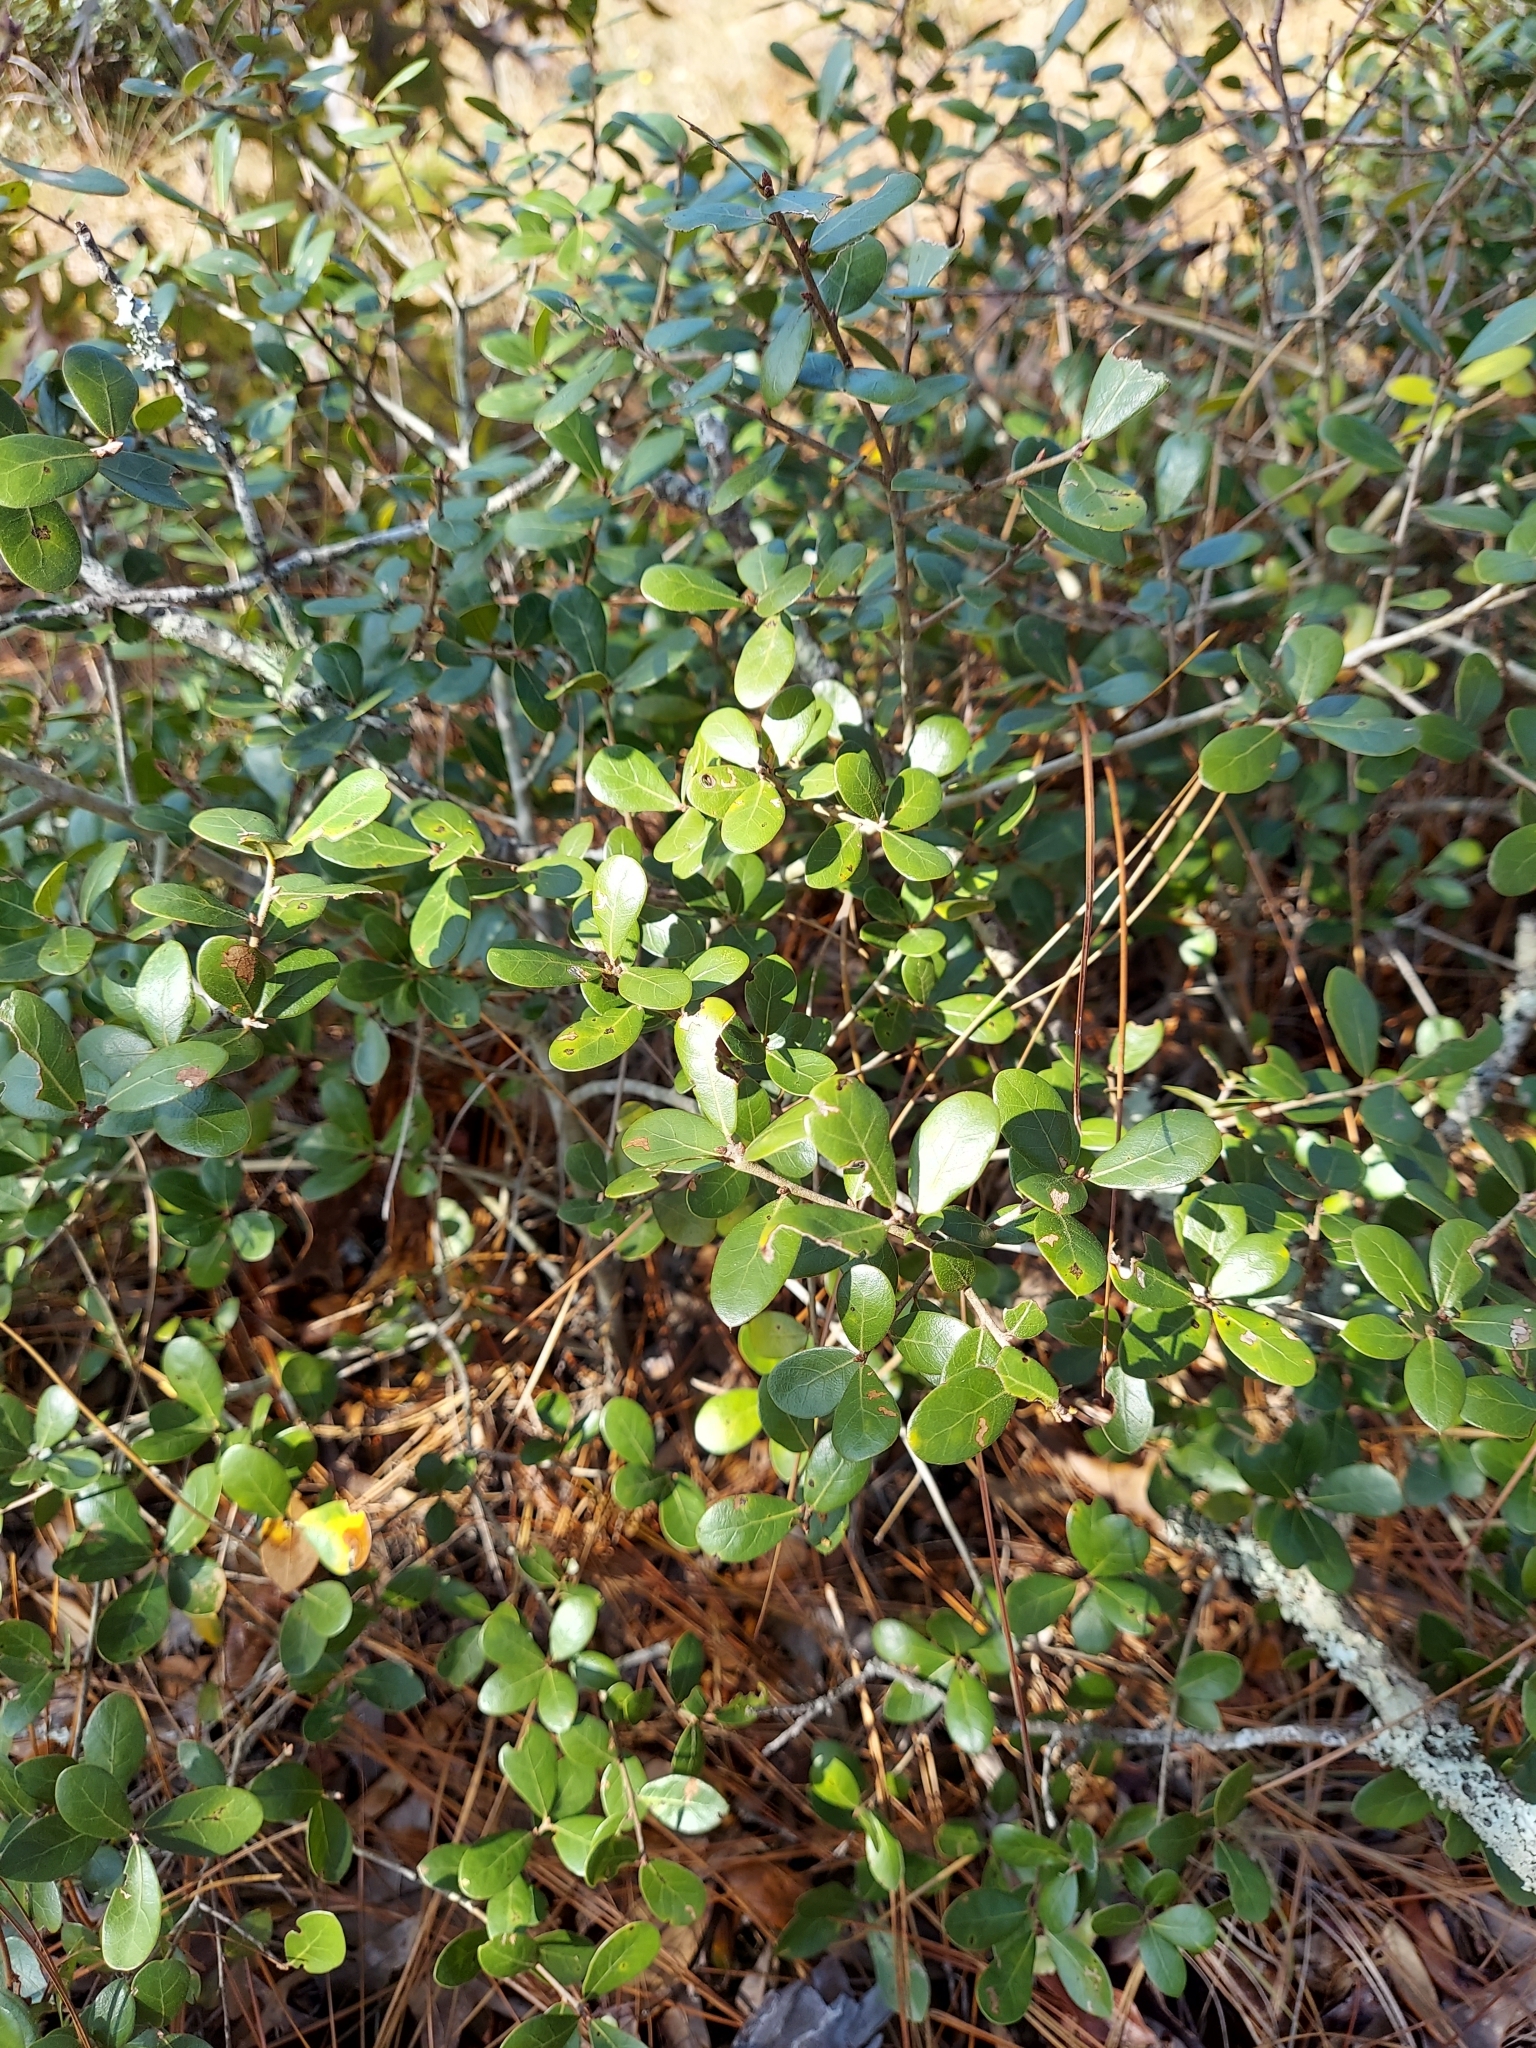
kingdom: Plantae
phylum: Tracheophyta
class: Magnoliopsida
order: Fagales
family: Fagaceae
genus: Quercus
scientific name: Quercus myrtifolia
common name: Myrtle oak
